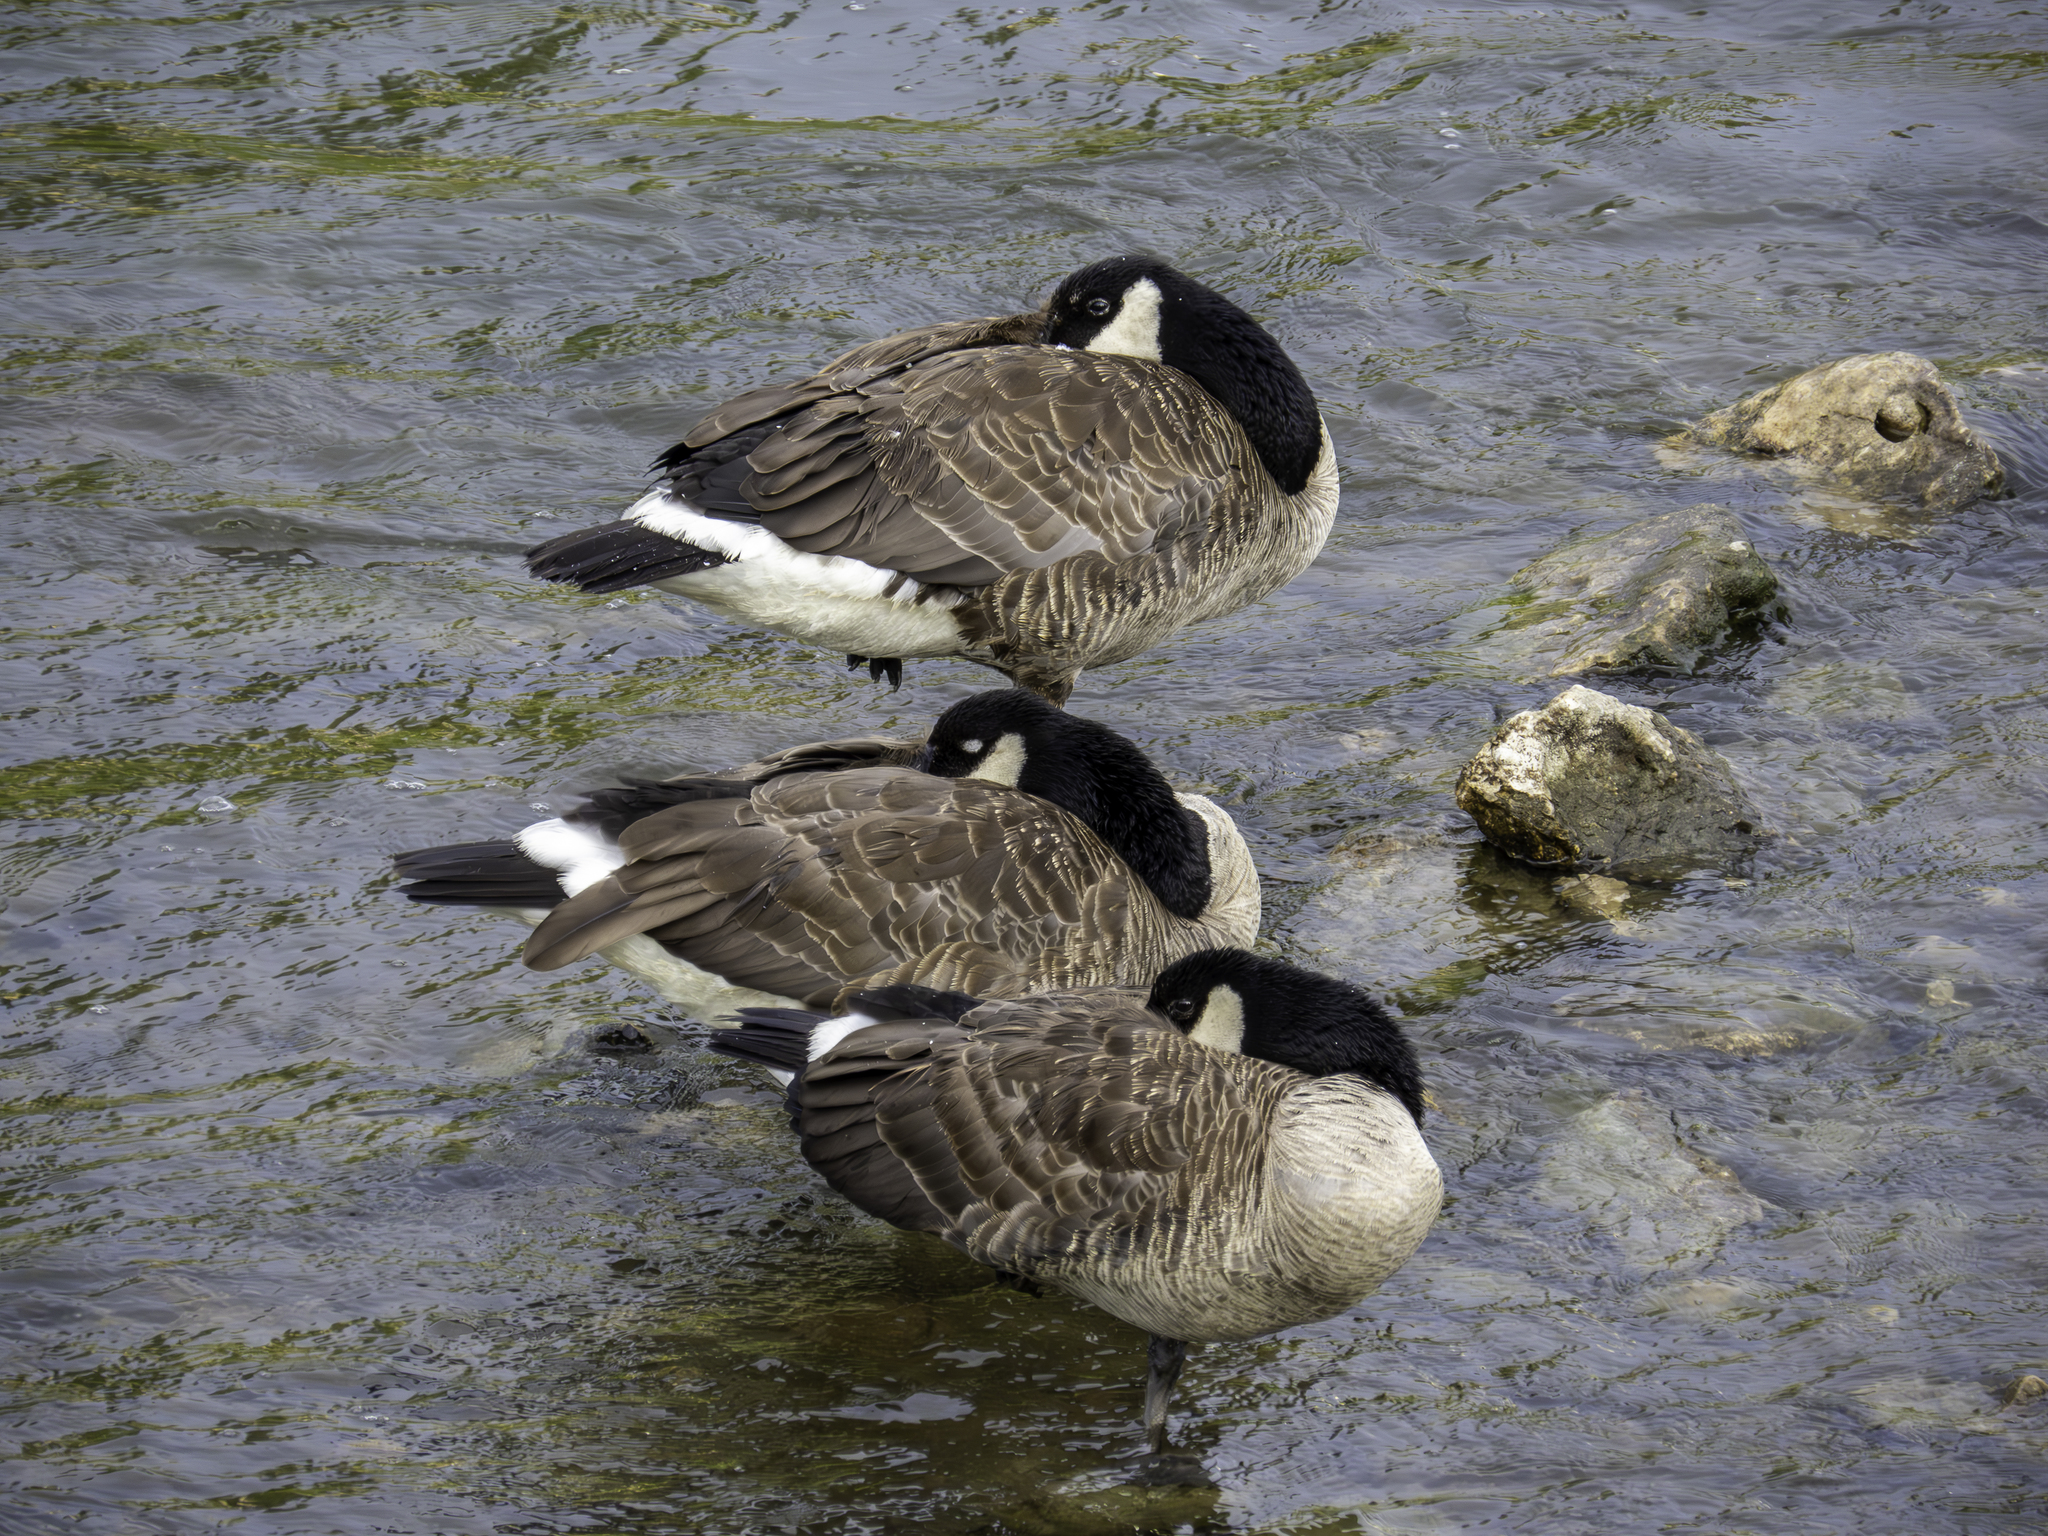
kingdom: Animalia
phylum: Chordata
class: Aves
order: Anseriformes
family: Anatidae
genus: Branta
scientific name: Branta canadensis
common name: Canada goose
